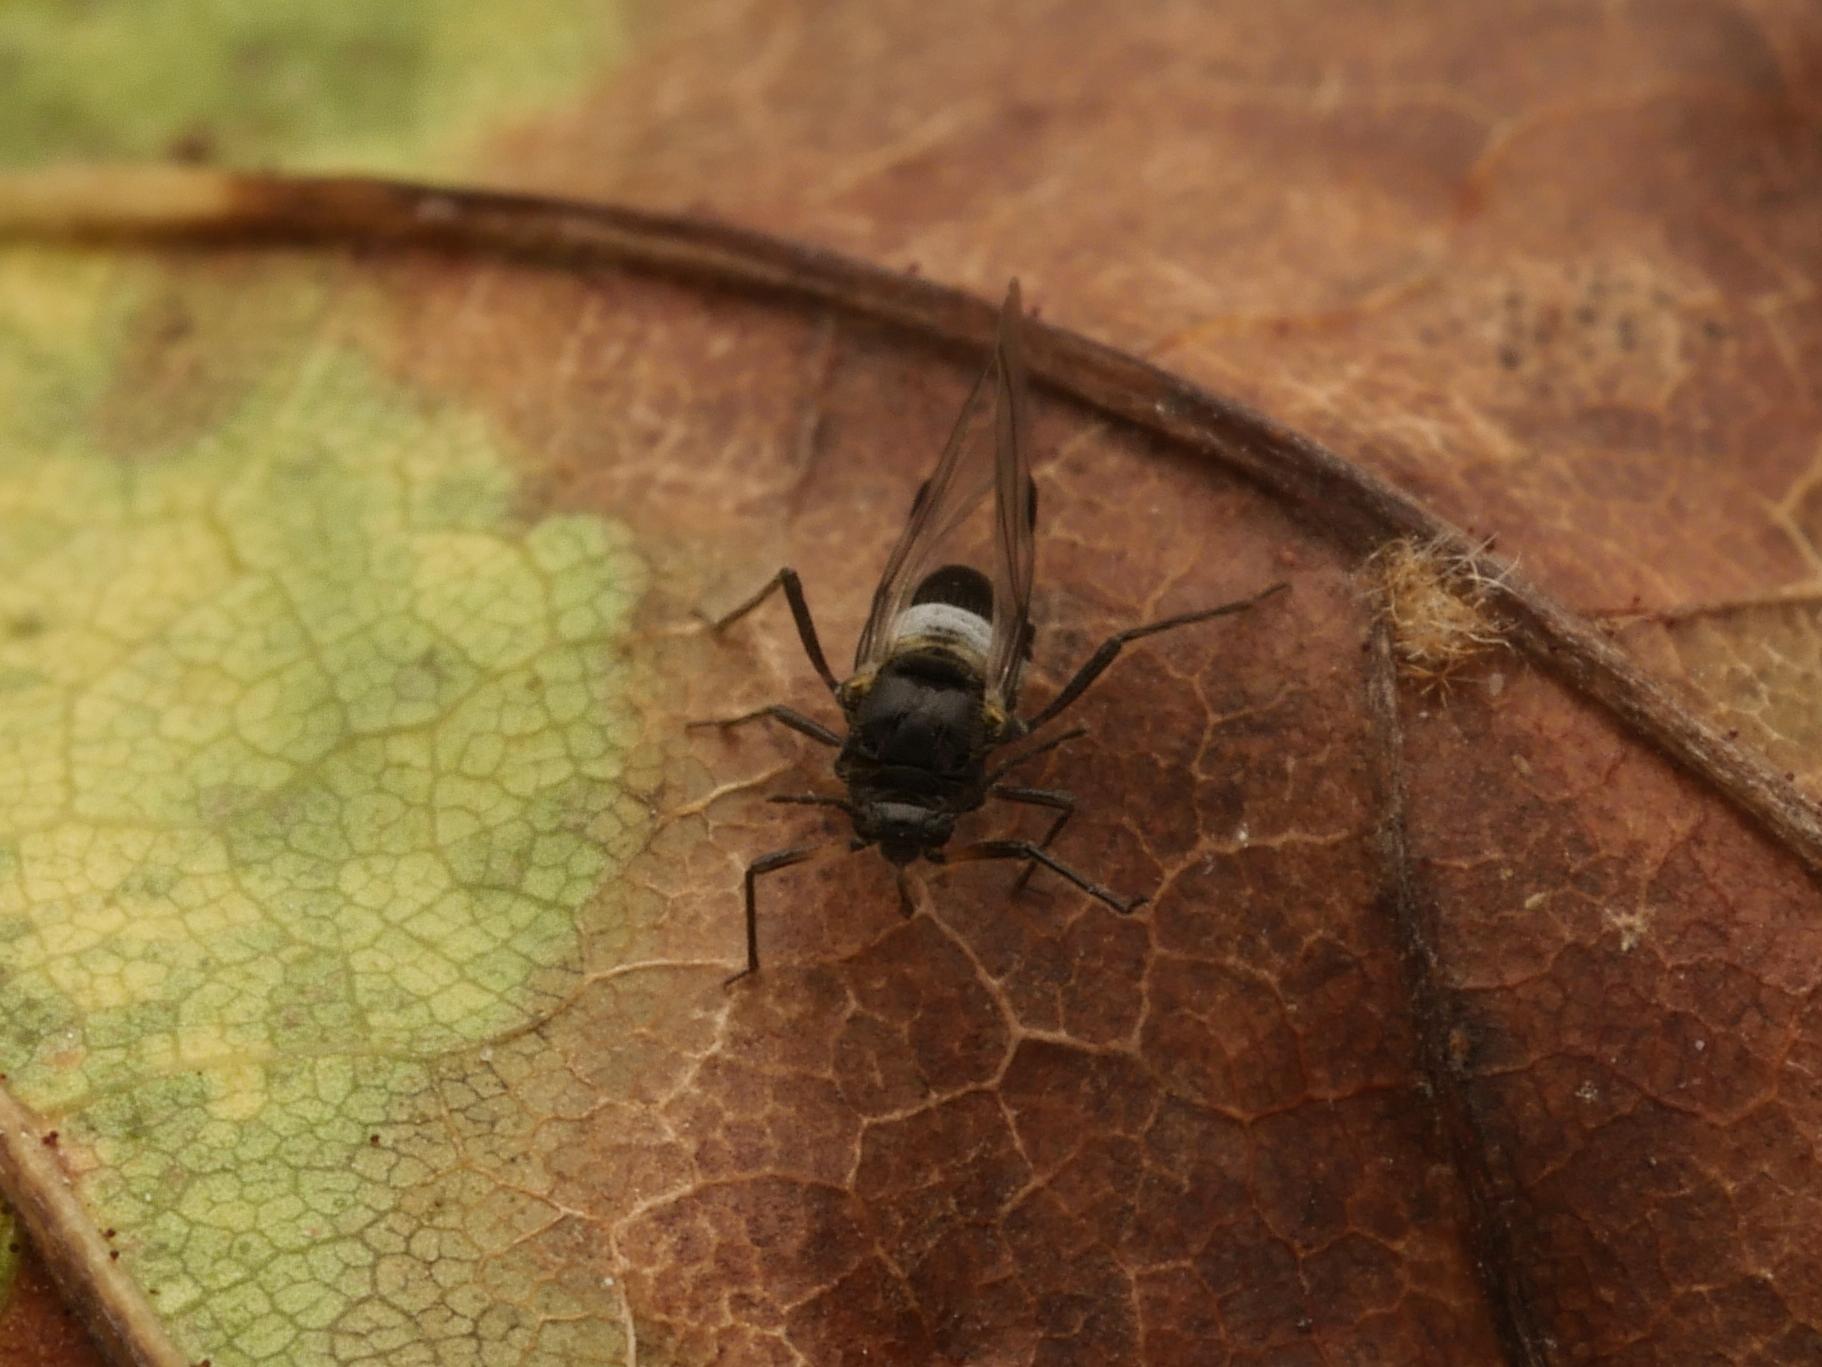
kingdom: Animalia
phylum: Arthropoda
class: Insecta
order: Hemiptera
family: Aphididae
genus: Anoecia
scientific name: Anoecia
